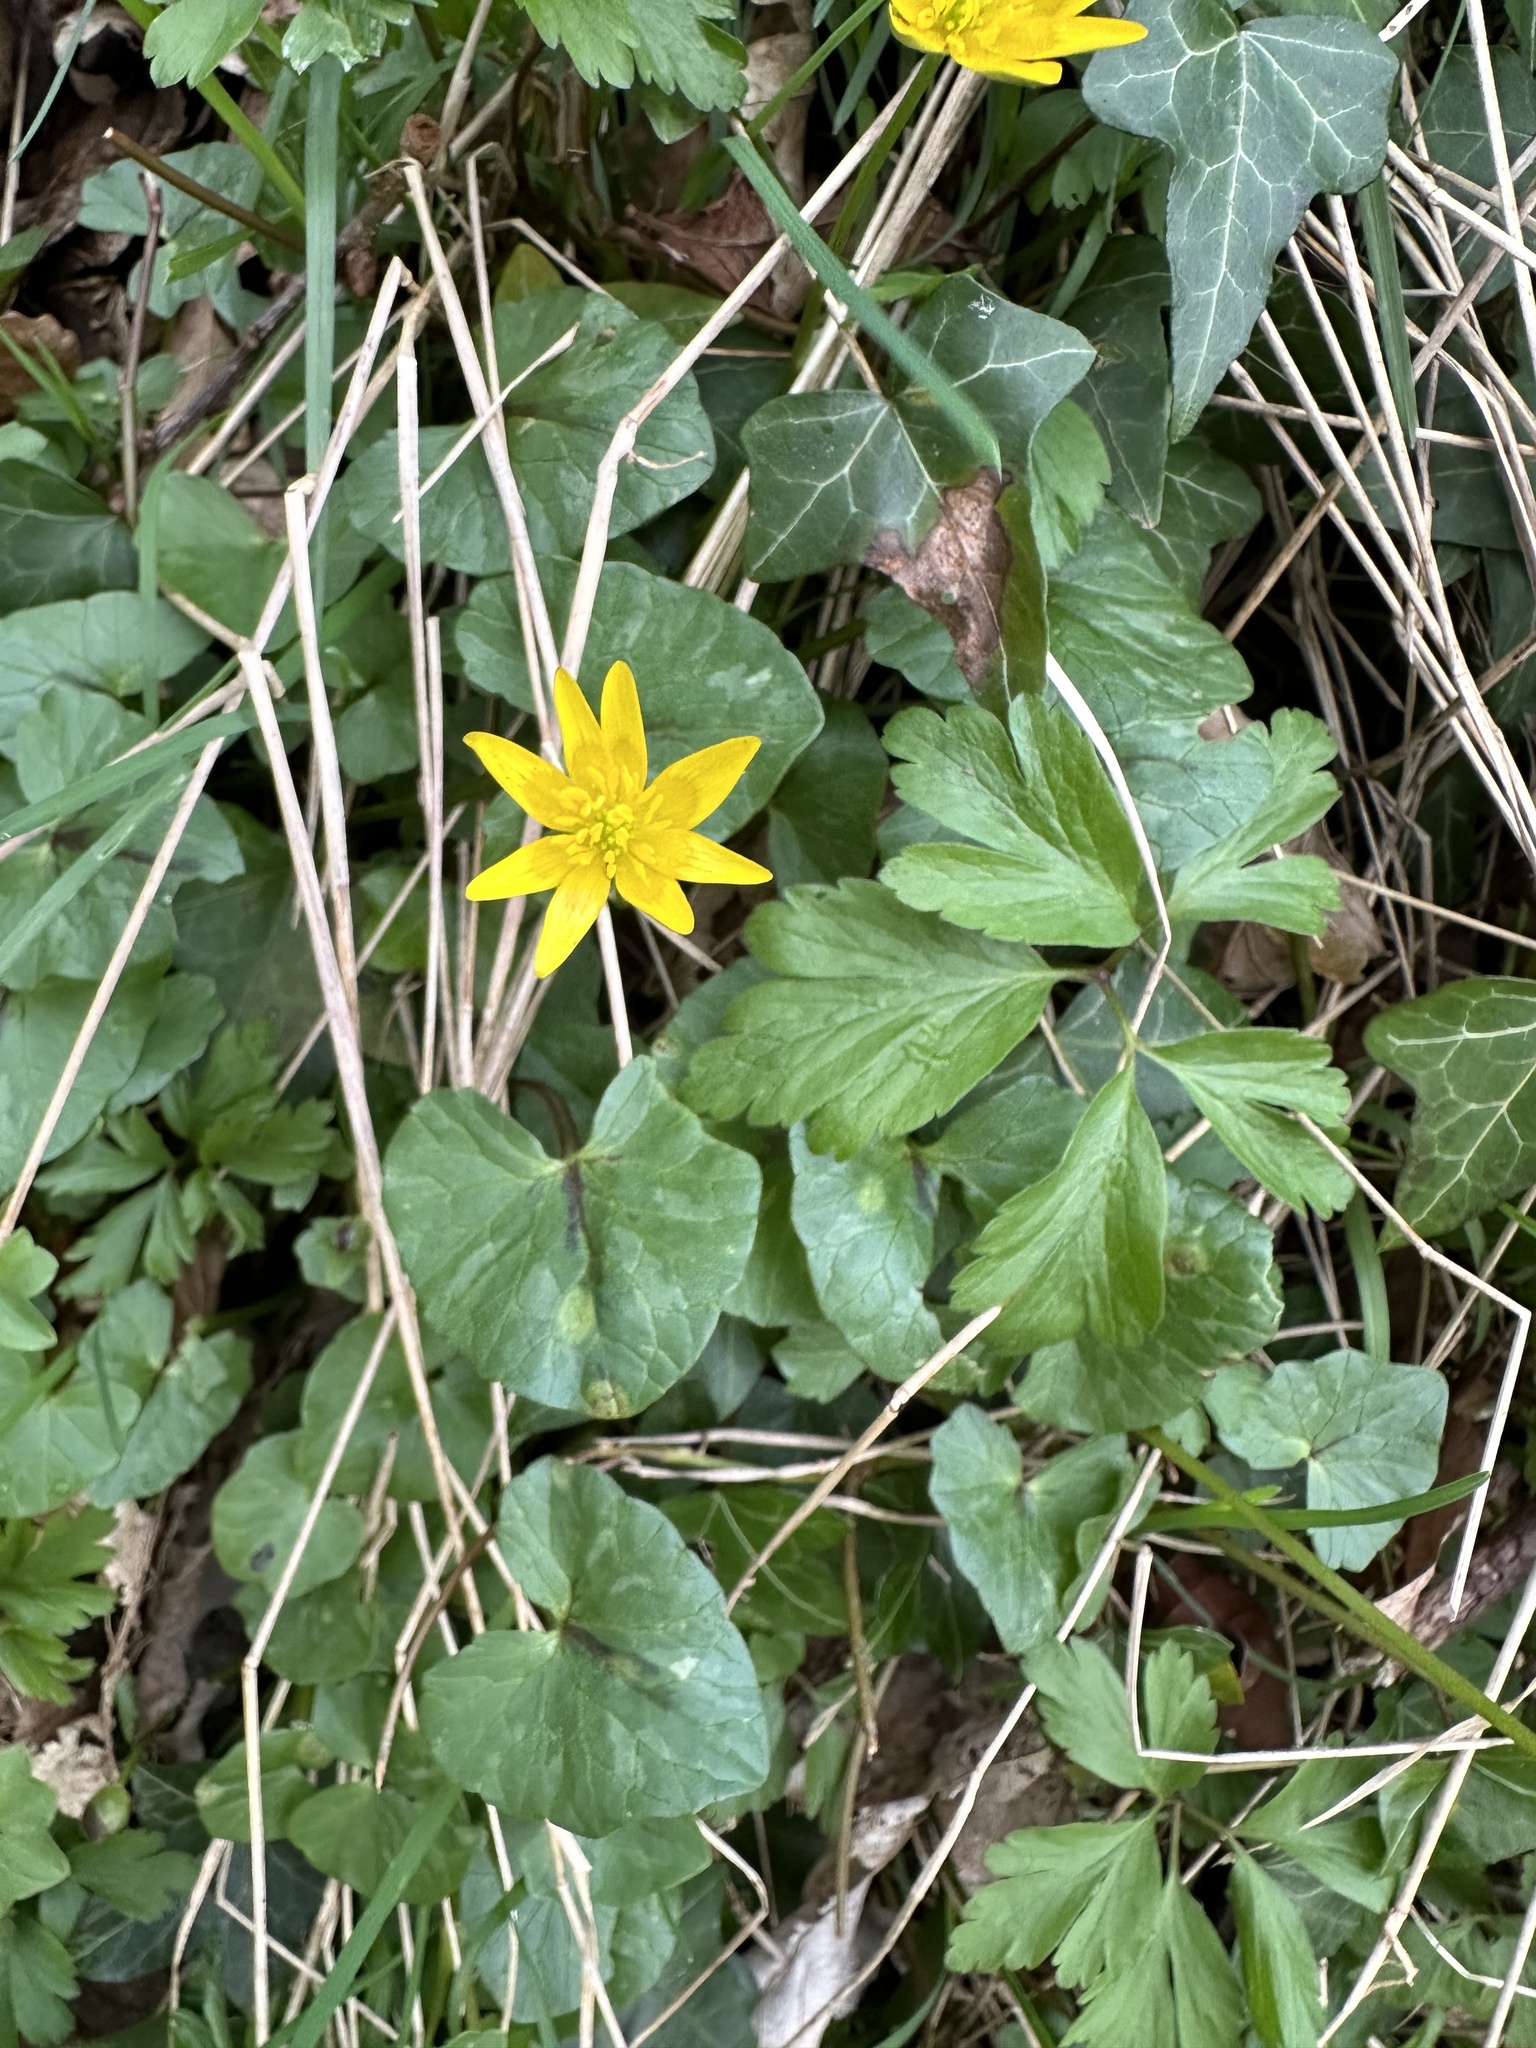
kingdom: Plantae
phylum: Tracheophyta
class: Magnoliopsida
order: Ranunculales
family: Ranunculaceae
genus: Ficaria
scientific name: Ficaria verna
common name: Lesser celandine
